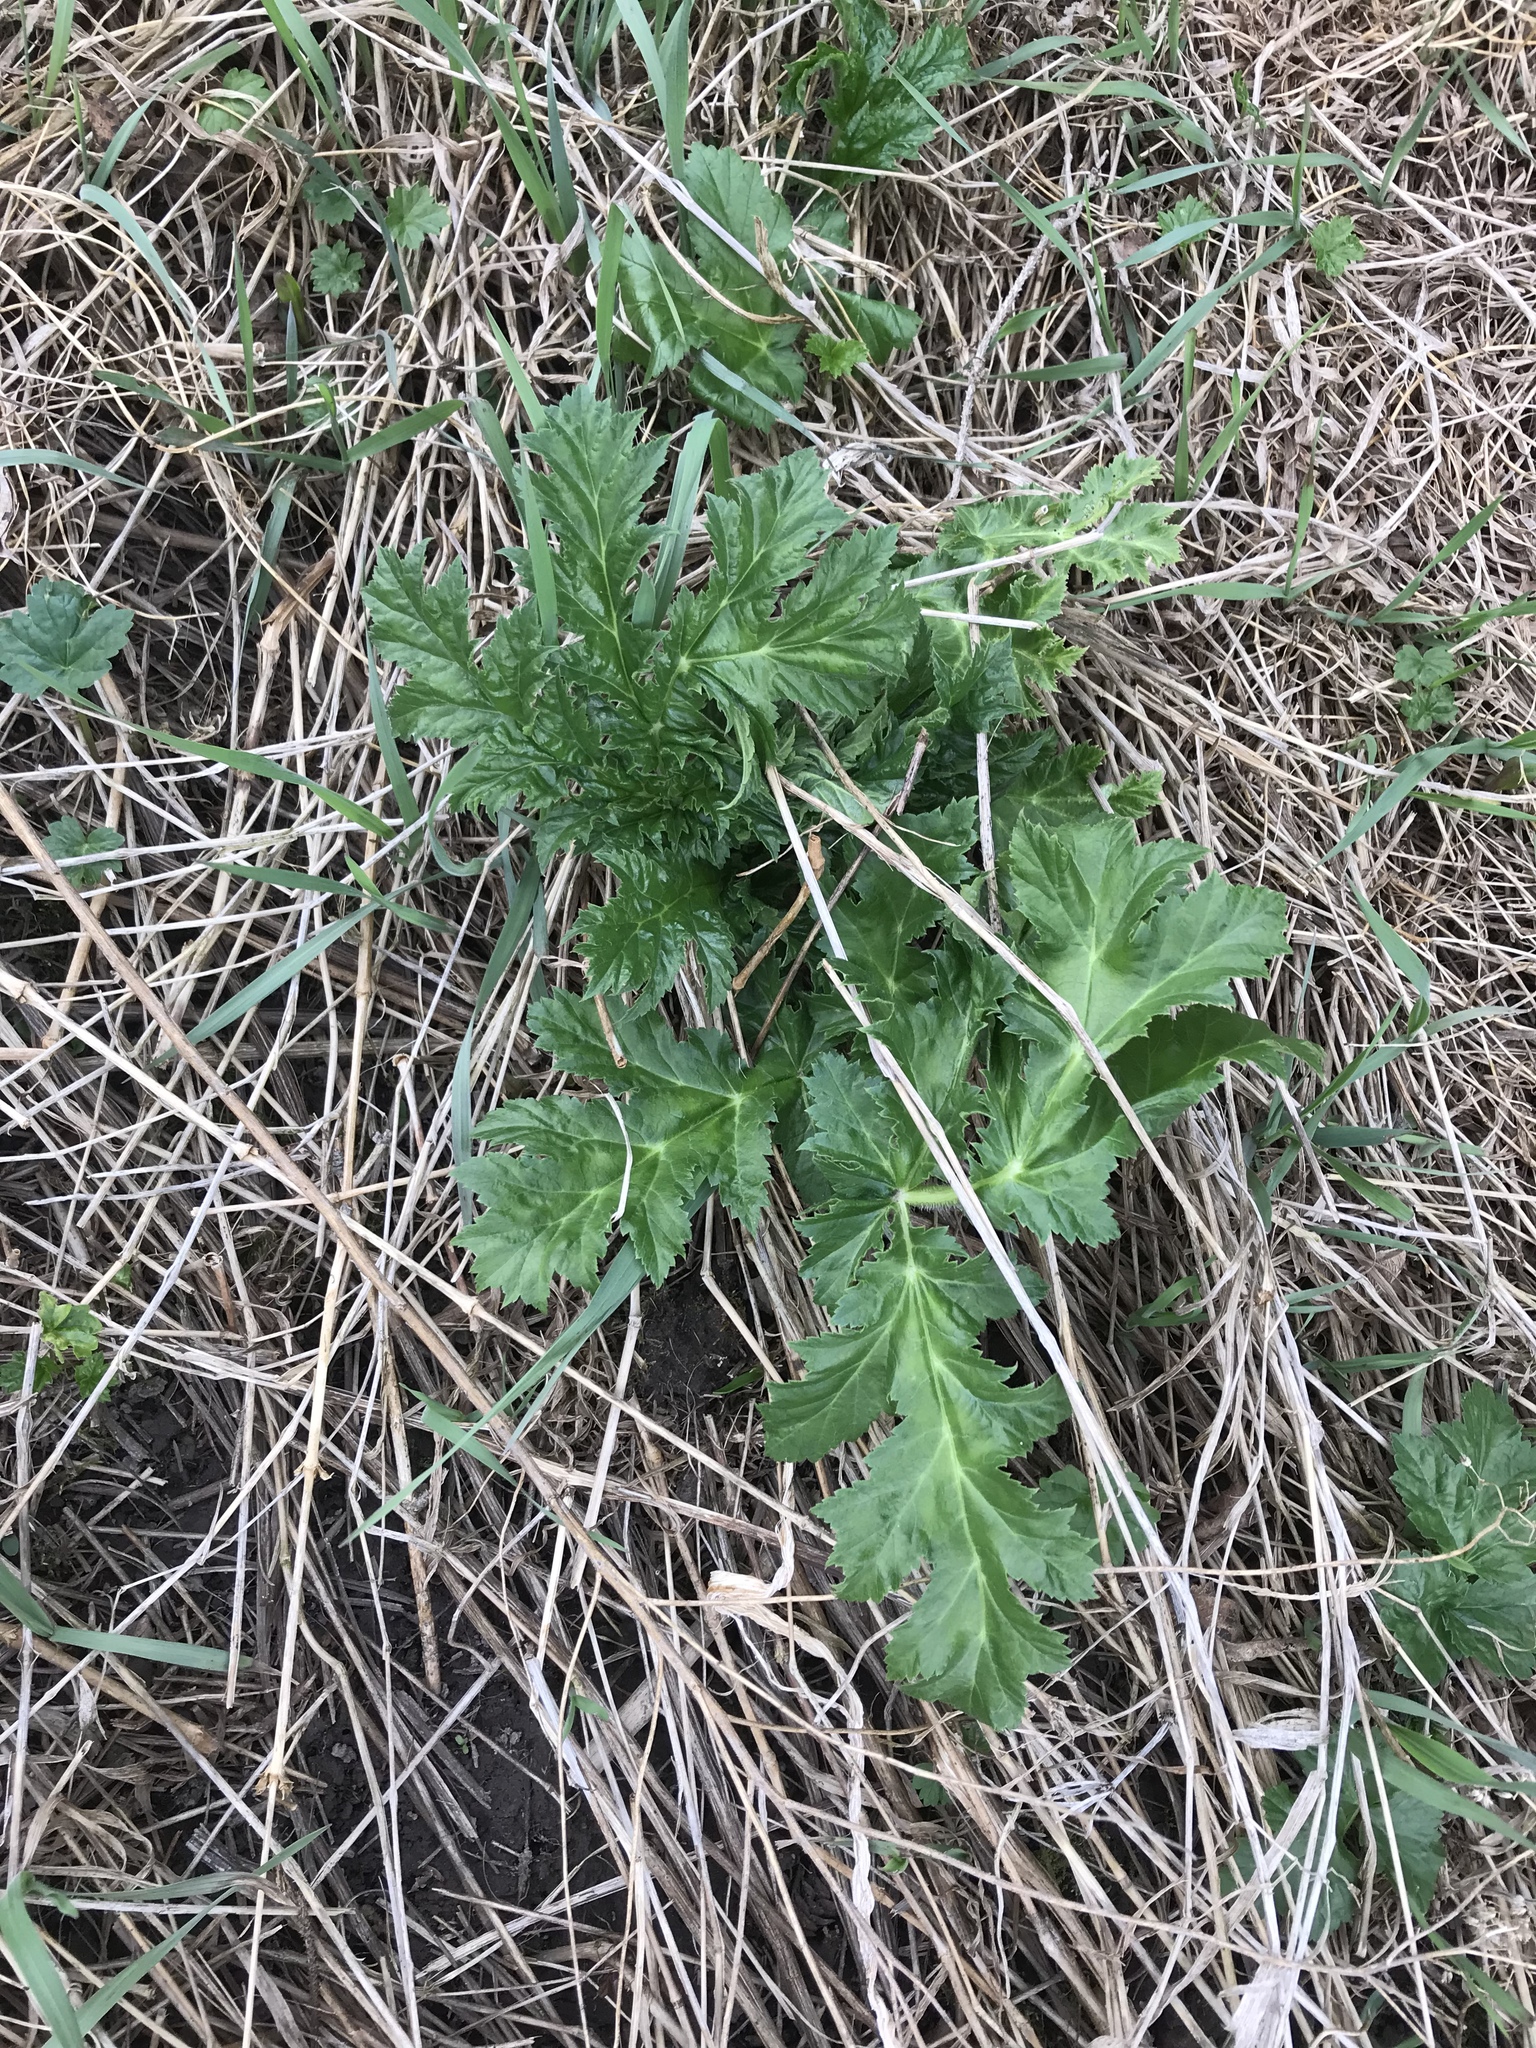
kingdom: Plantae
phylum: Tracheophyta
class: Magnoliopsida
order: Apiales
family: Apiaceae
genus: Heracleum
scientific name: Heracleum mantegazzianum
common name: Giant hogweed
